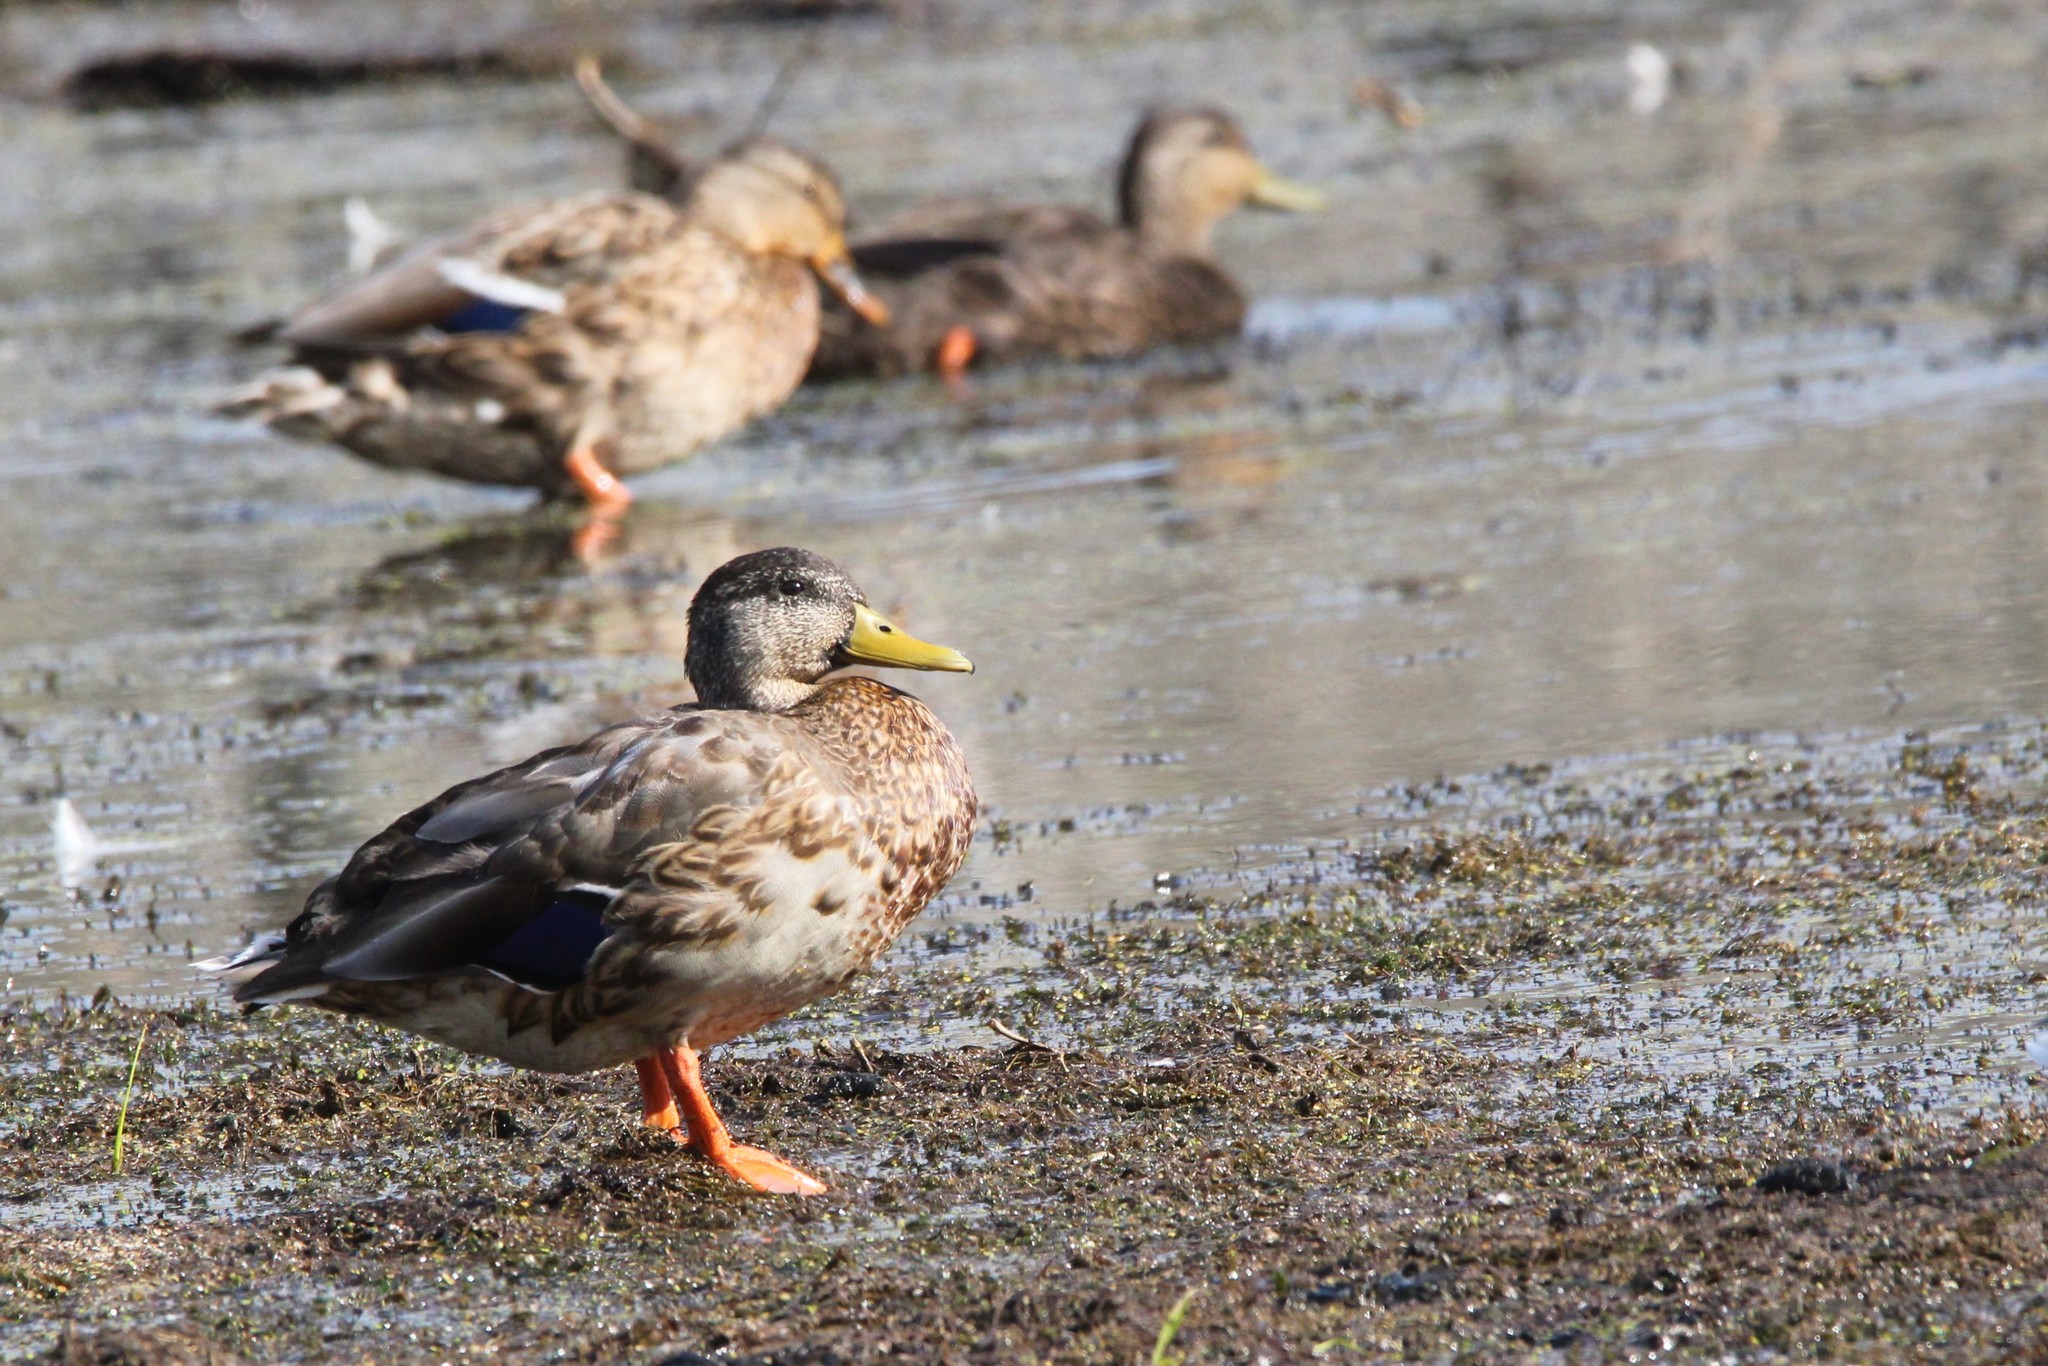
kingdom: Animalia
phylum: Chordata
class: Aves
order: Anseriformes
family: Anatidae
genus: Anas
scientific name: Anas platyrhynchos
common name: Mallard
